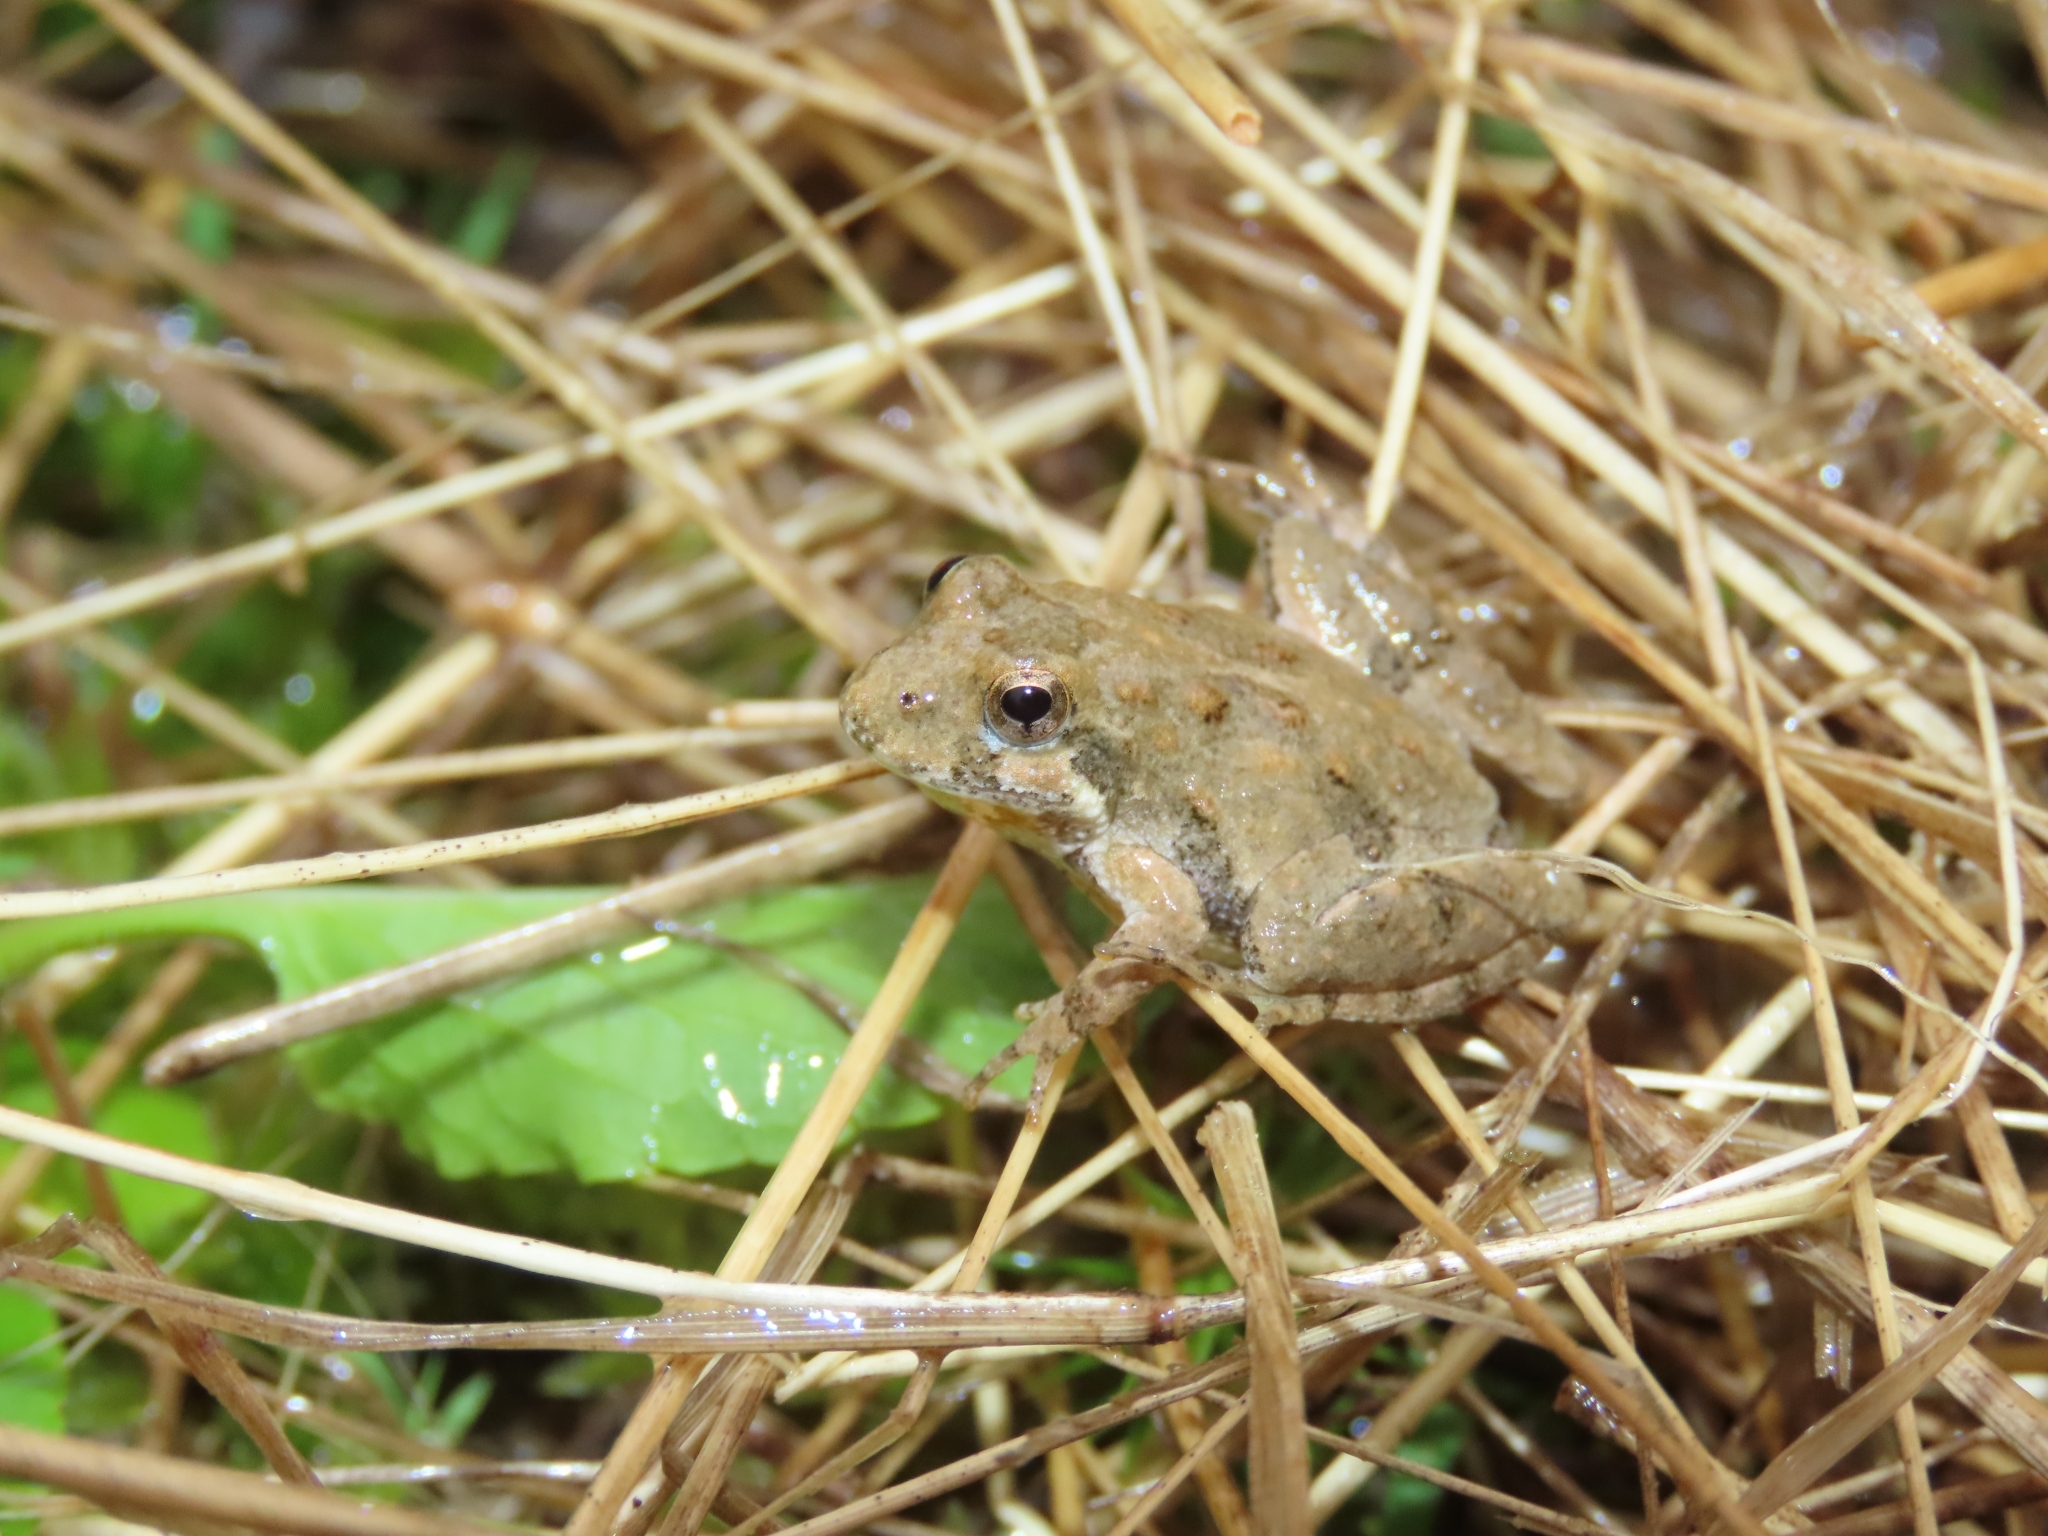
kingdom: Animalia
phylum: Chordata
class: Amphibia
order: Anura
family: Hylidae
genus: Acris
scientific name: Acris crepitans
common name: Northern cricket frog
